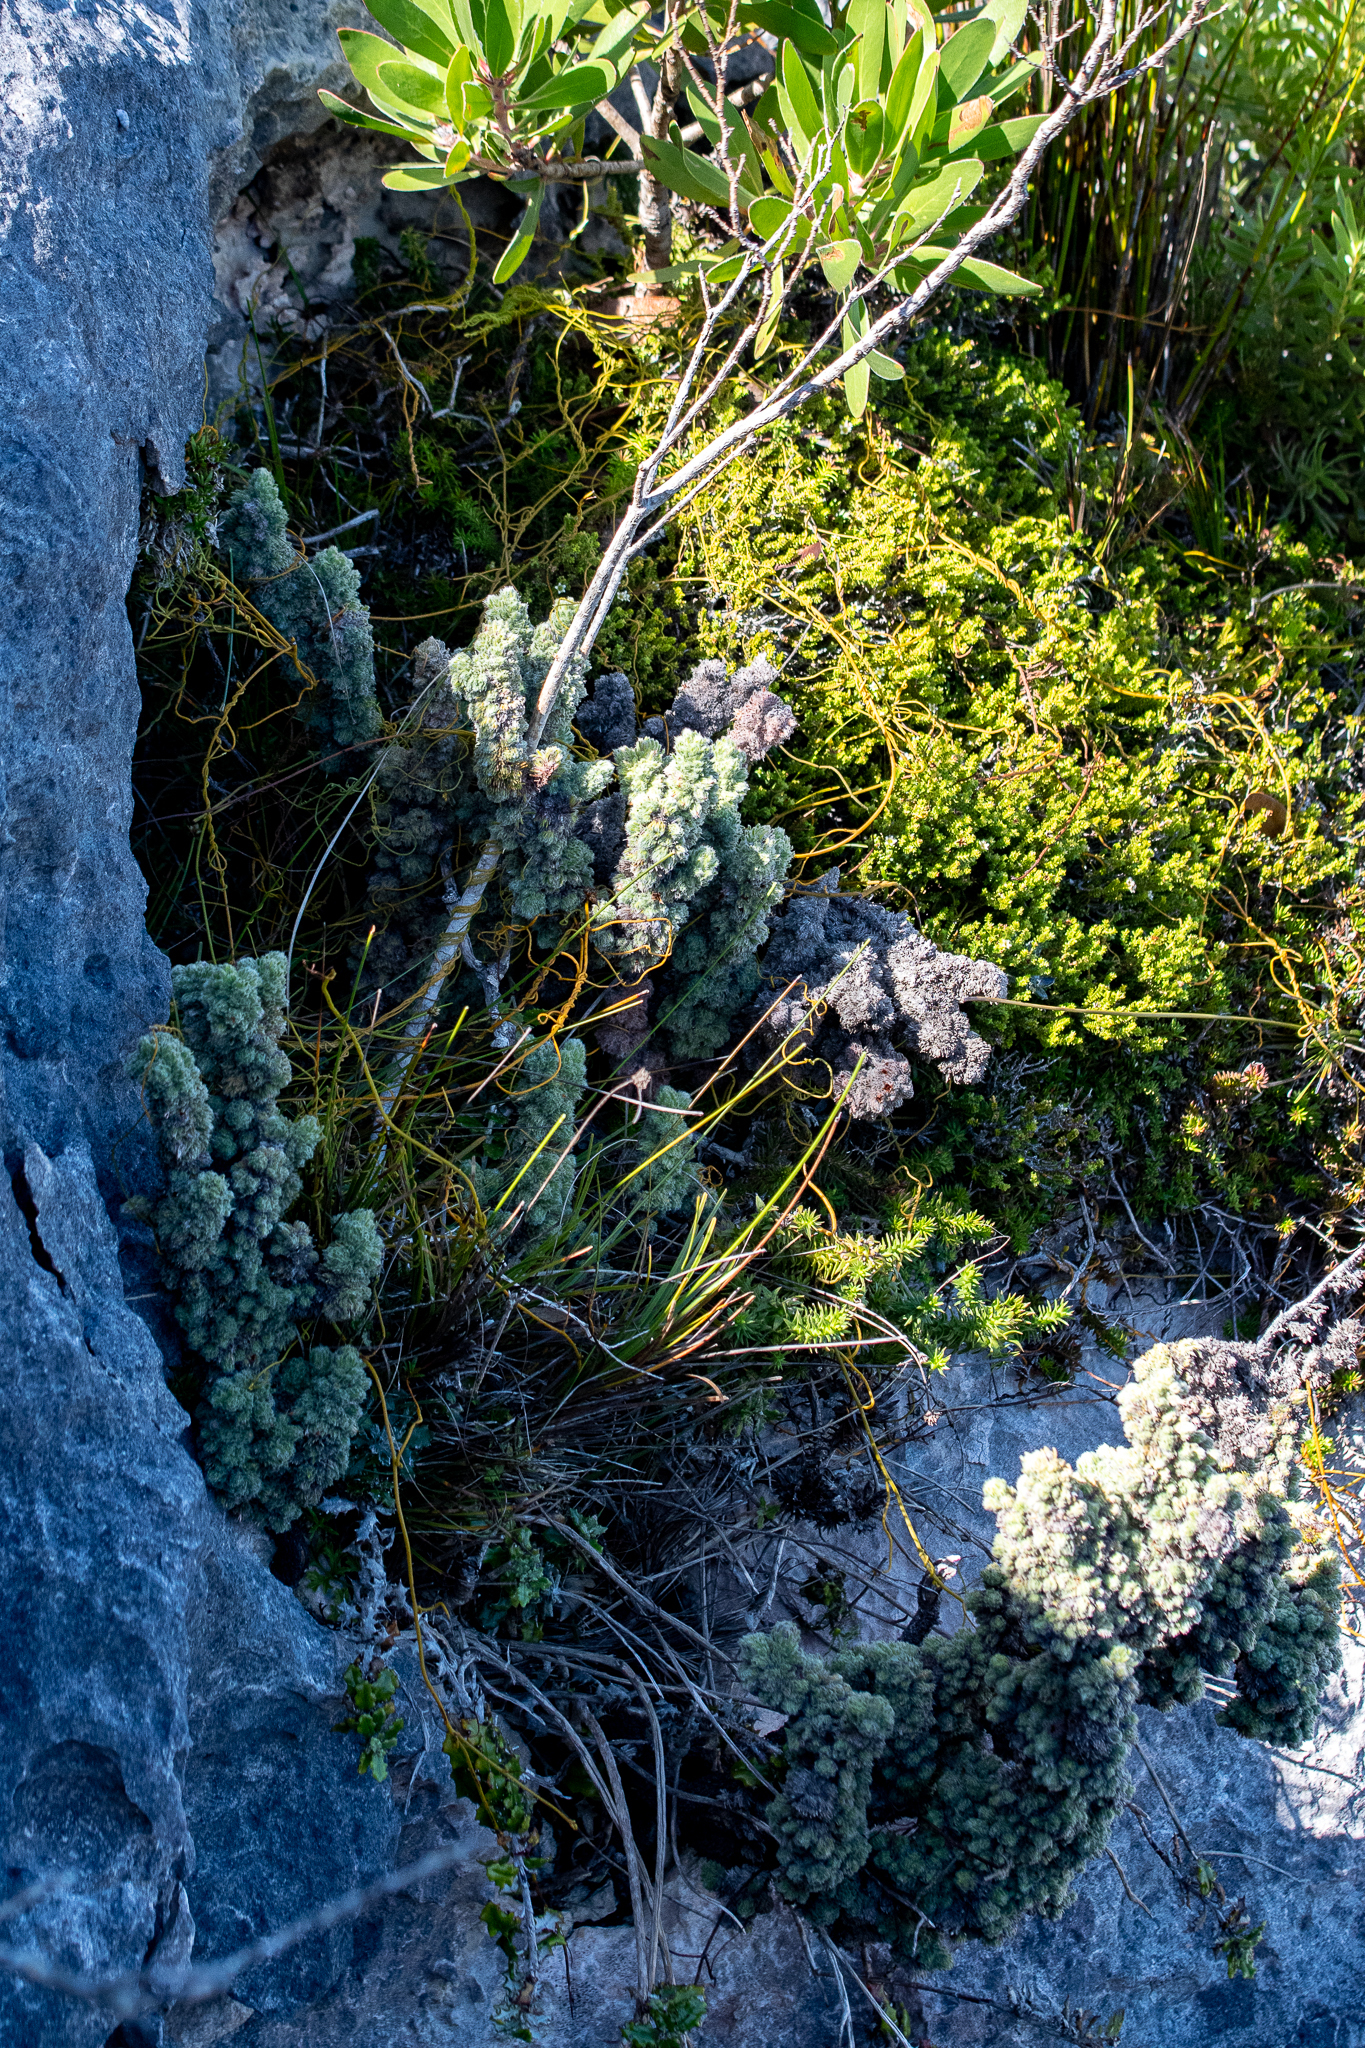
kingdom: Plantae
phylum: Tracheophyta
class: Magnoliopsida
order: Ericales
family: Ericaceae
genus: Erica
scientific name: Erica occulta
